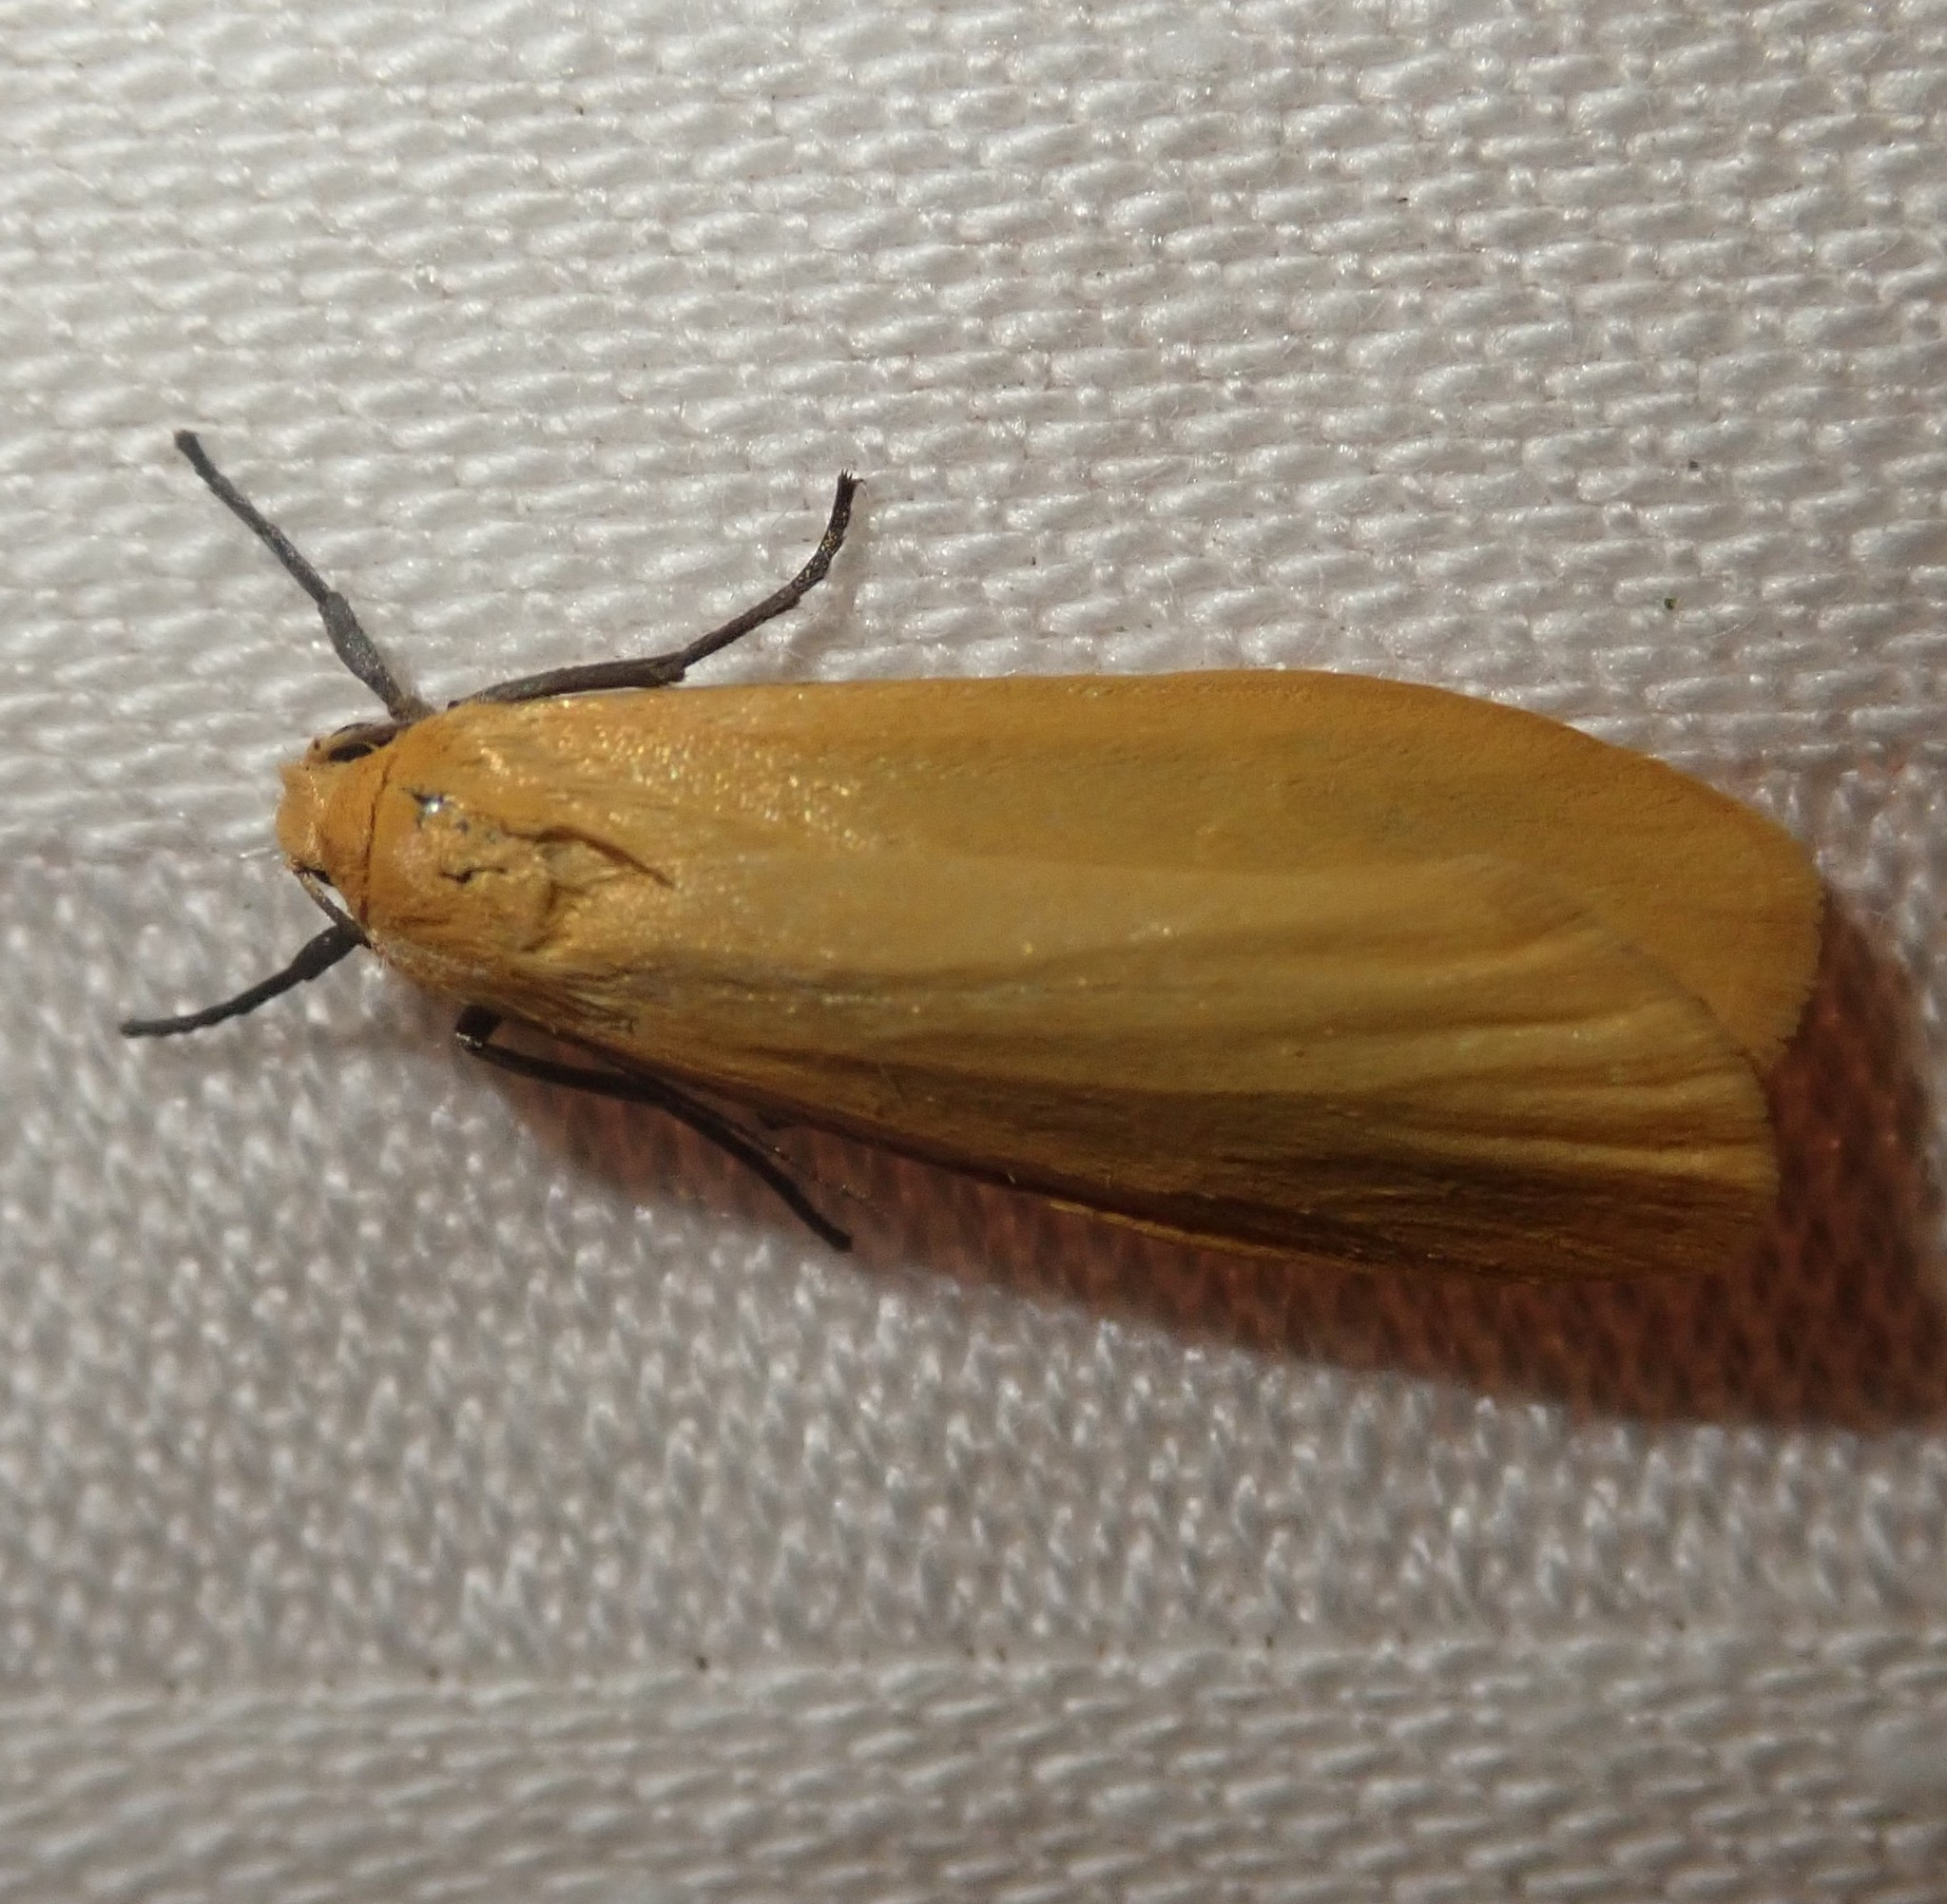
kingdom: Animalia
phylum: Arthropoda
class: Insecta
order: Lepidoptera
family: Erebidae
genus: Wittia
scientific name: Wittia sororcula
